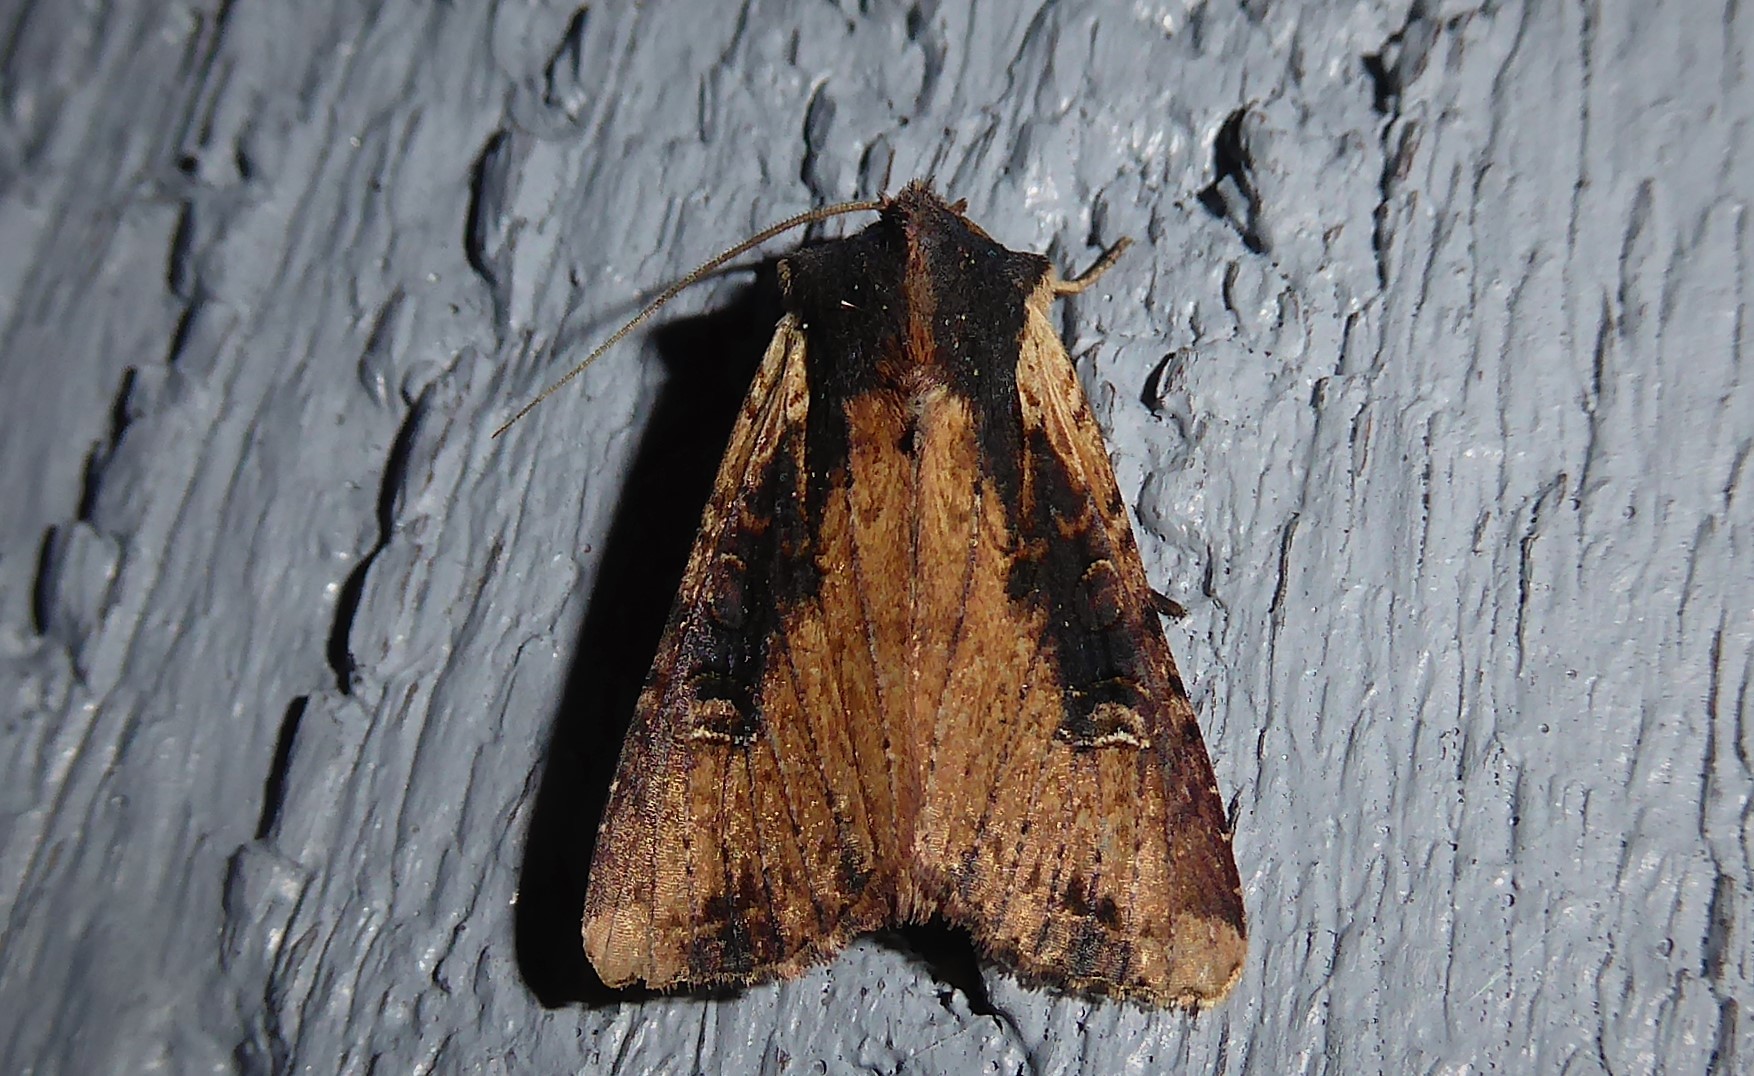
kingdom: Animalia
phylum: Arthropoda
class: Insecta
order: Lepidoptera
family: Noctuidae
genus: Ichneutica
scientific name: Ichneutica omoplaca
